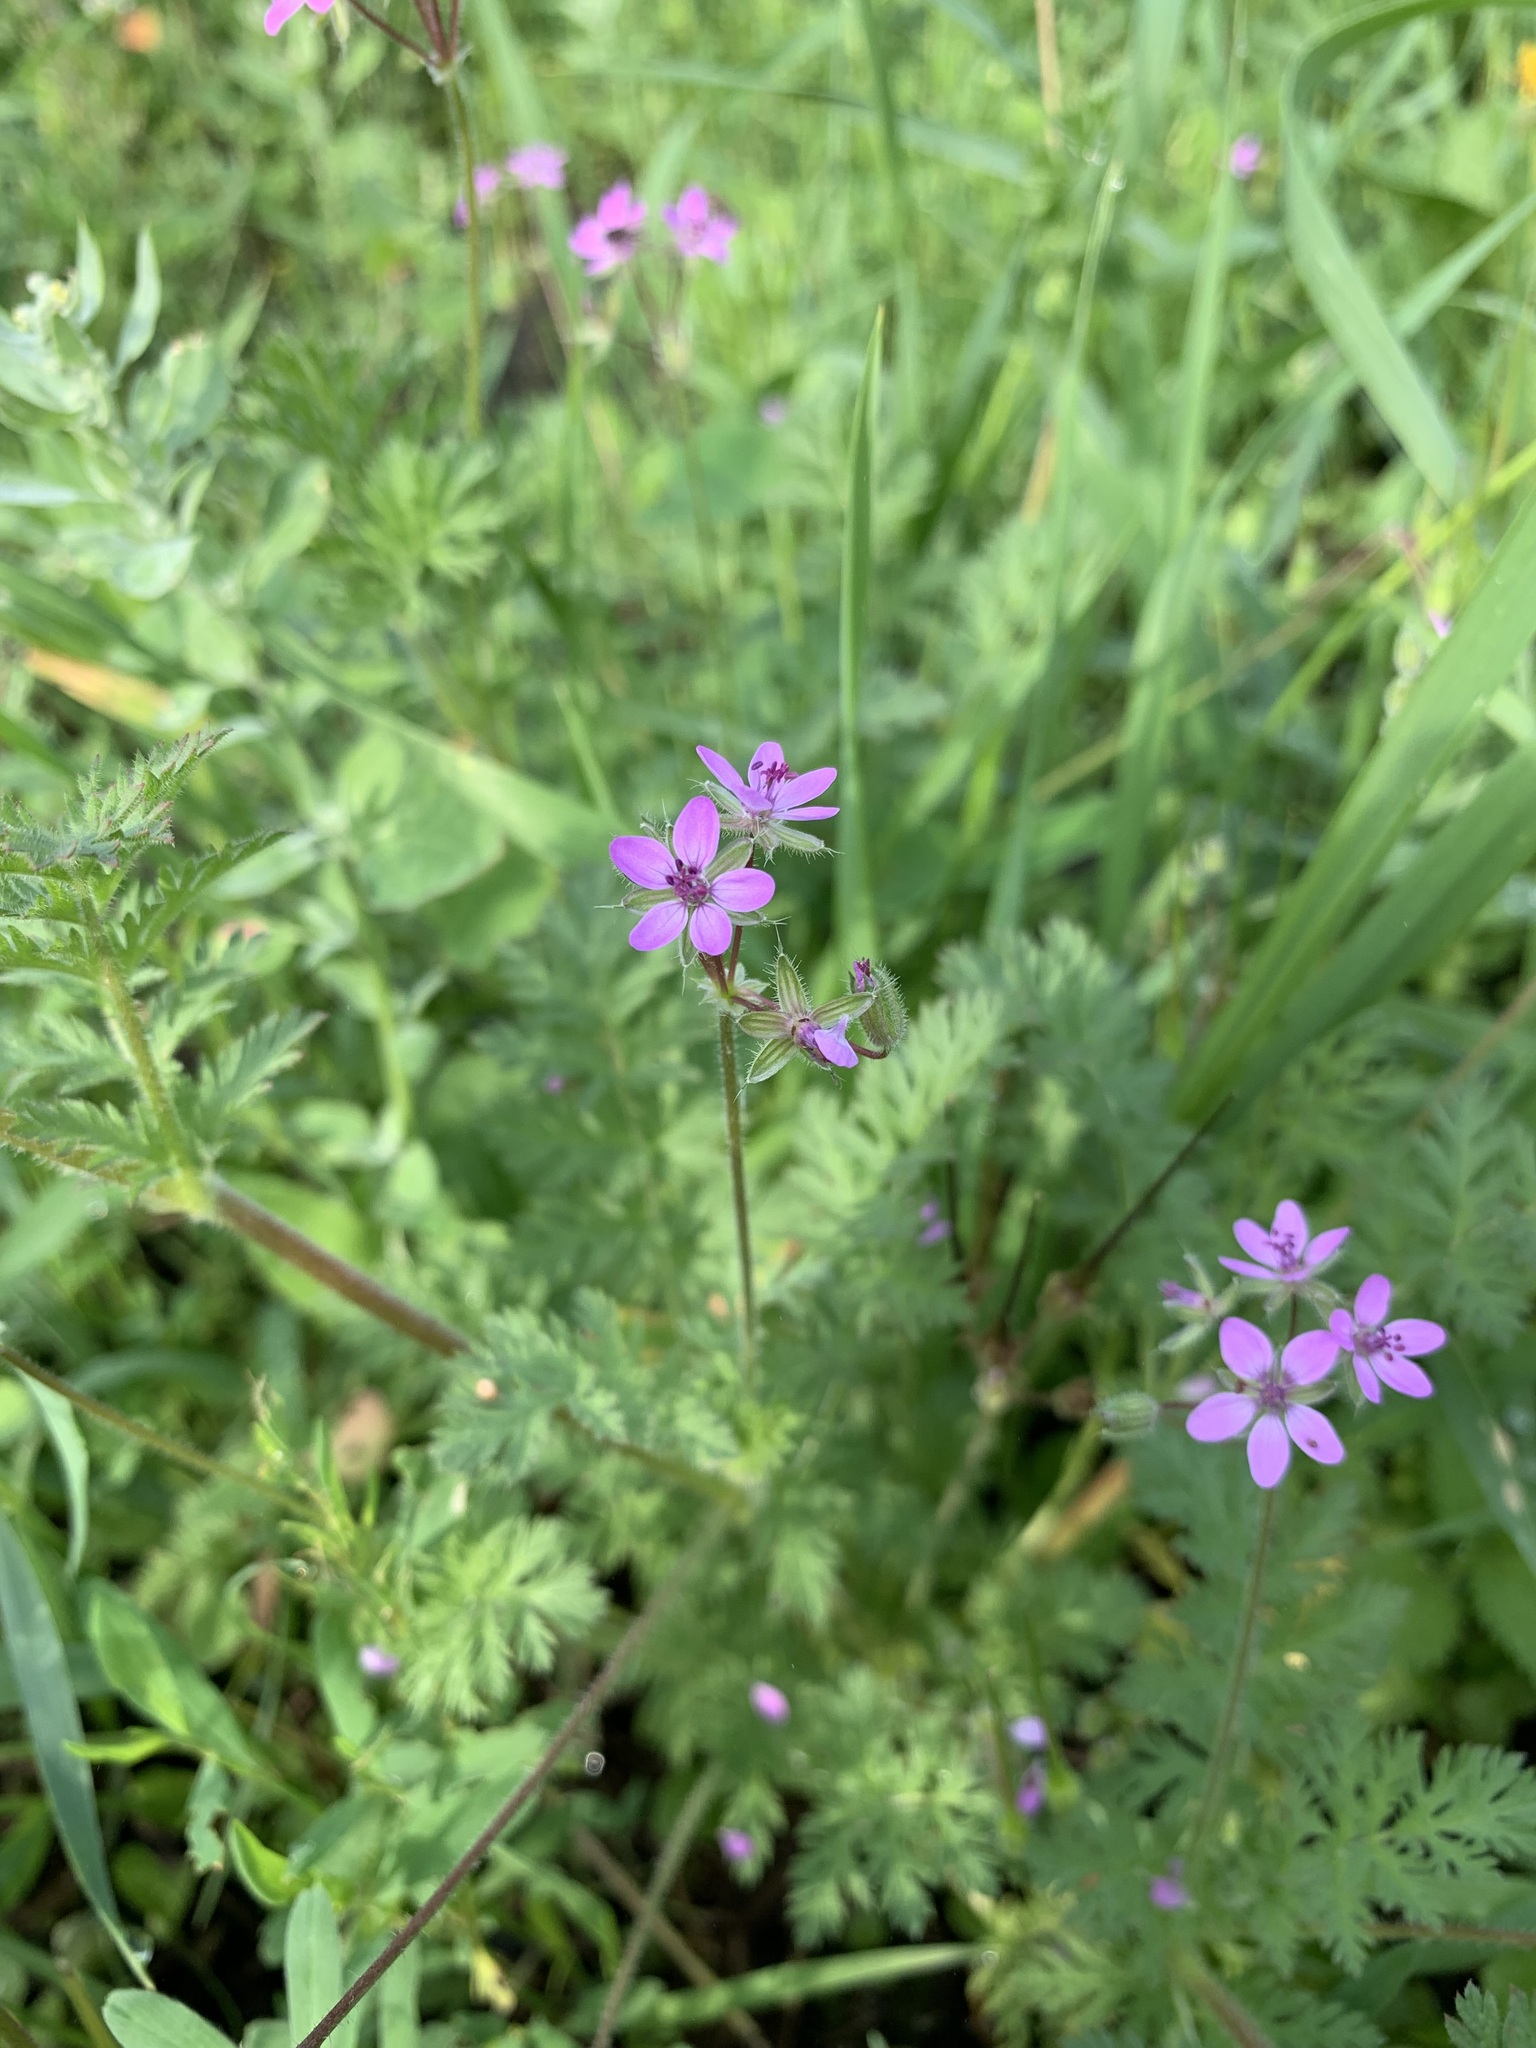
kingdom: Plantae
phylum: Tracheophyta
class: Magnoliopsida
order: Geraniales
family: Geraniaceae
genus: Erodium
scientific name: Erodium cicutarium
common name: Common stork's-bill
